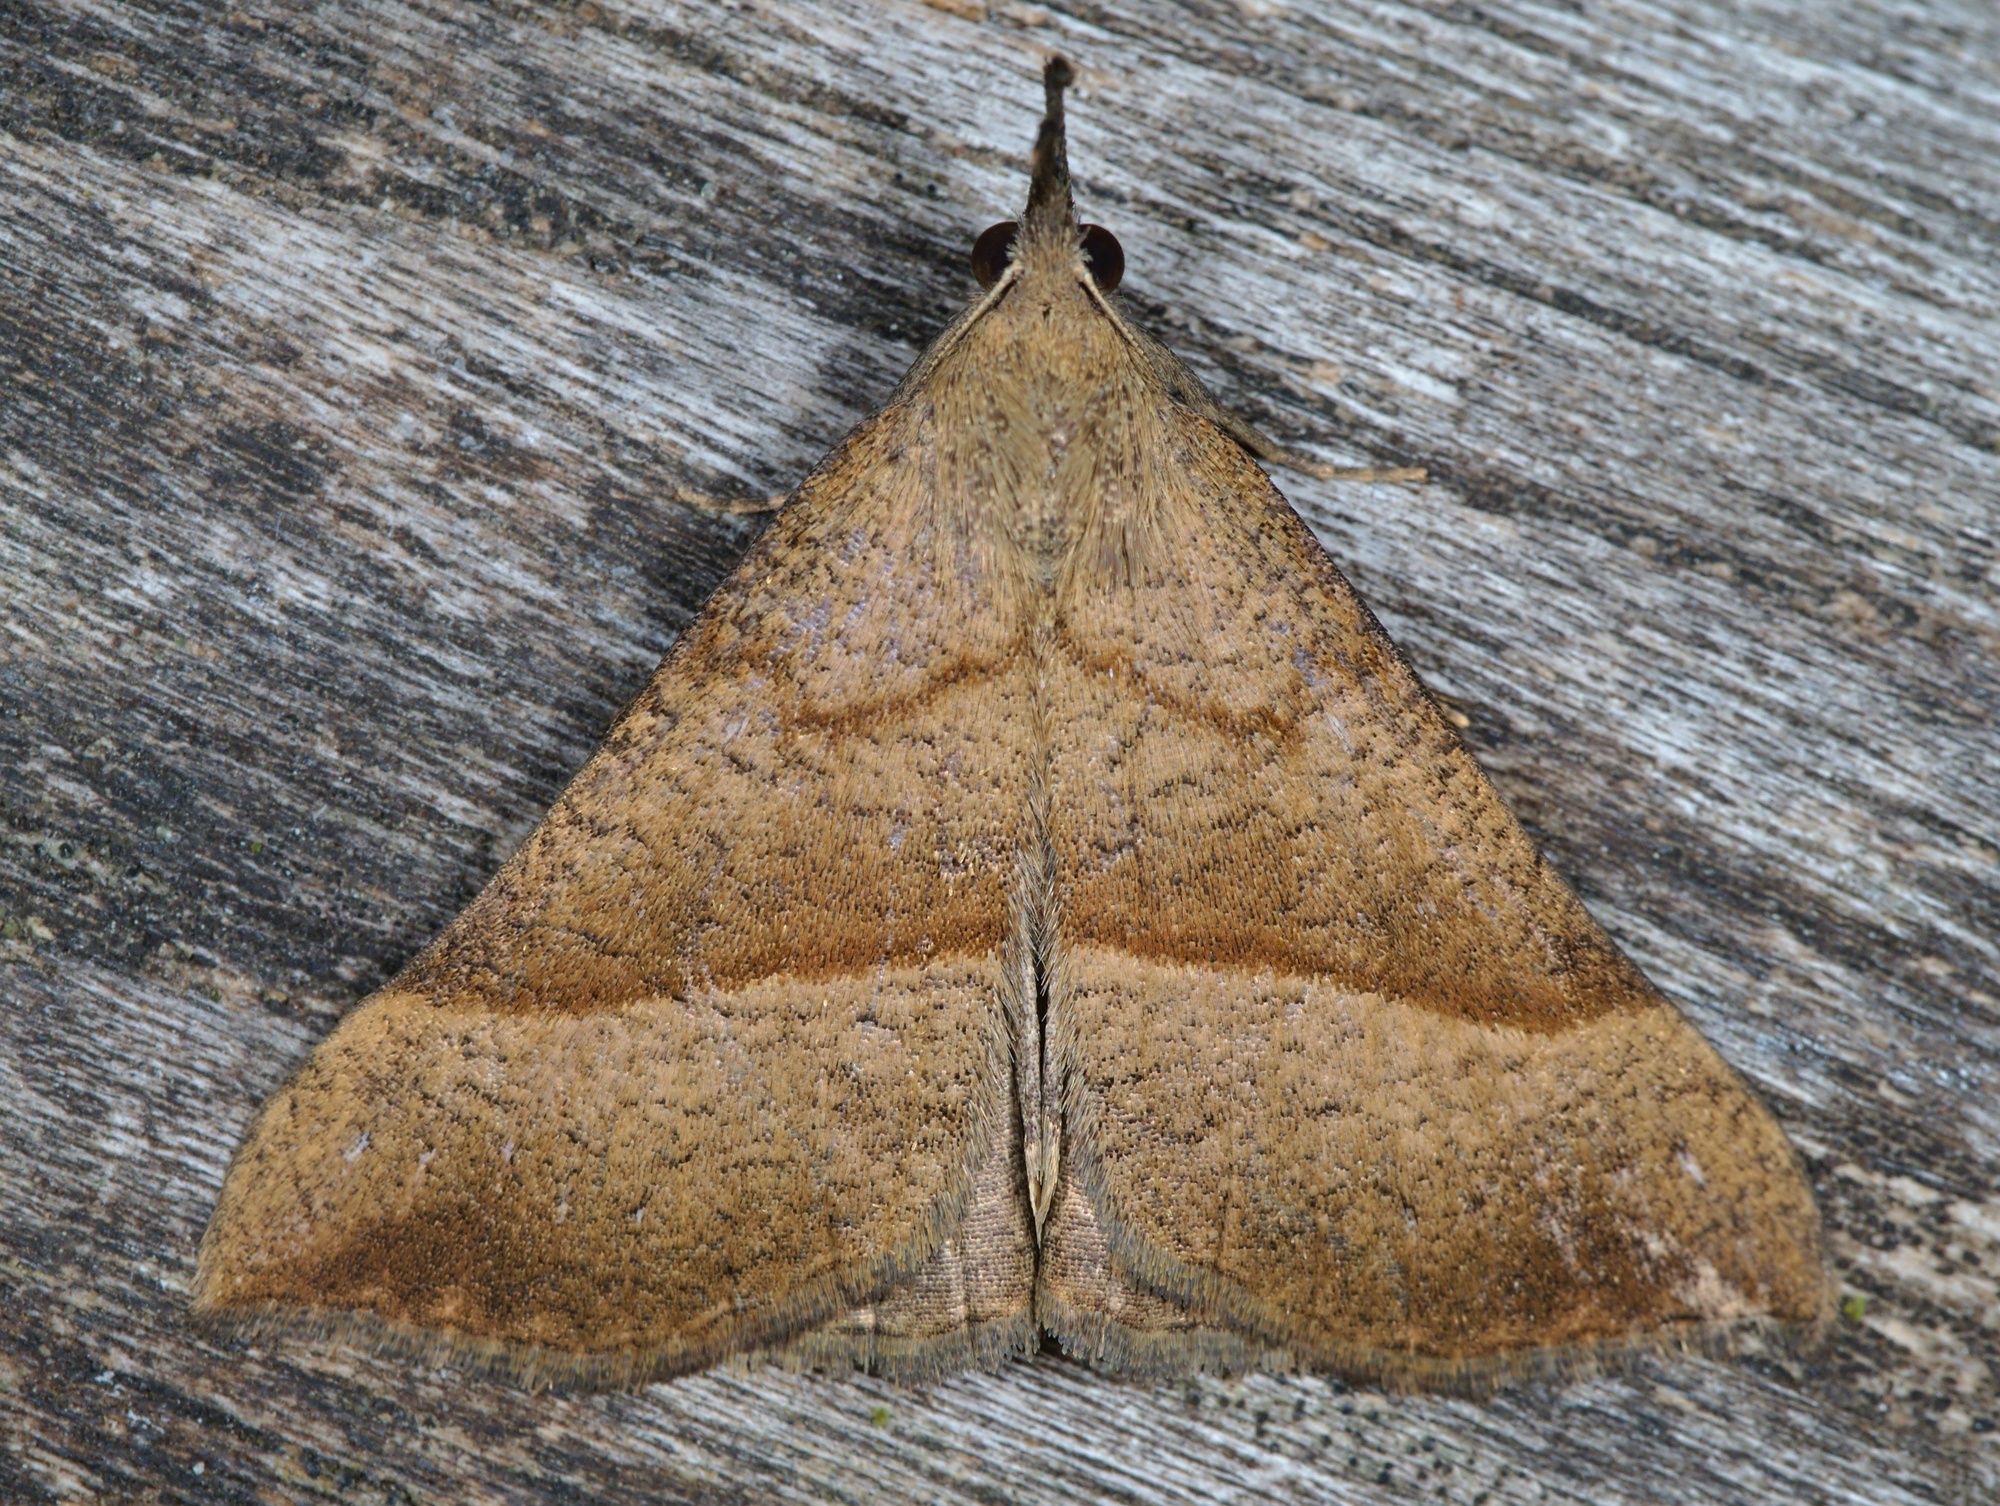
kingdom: Animalia
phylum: Arthropoda
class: Insecta
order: Lepidoptera
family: Erebidae
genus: Hypena
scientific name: Hypena proboscidalis
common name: Snout
